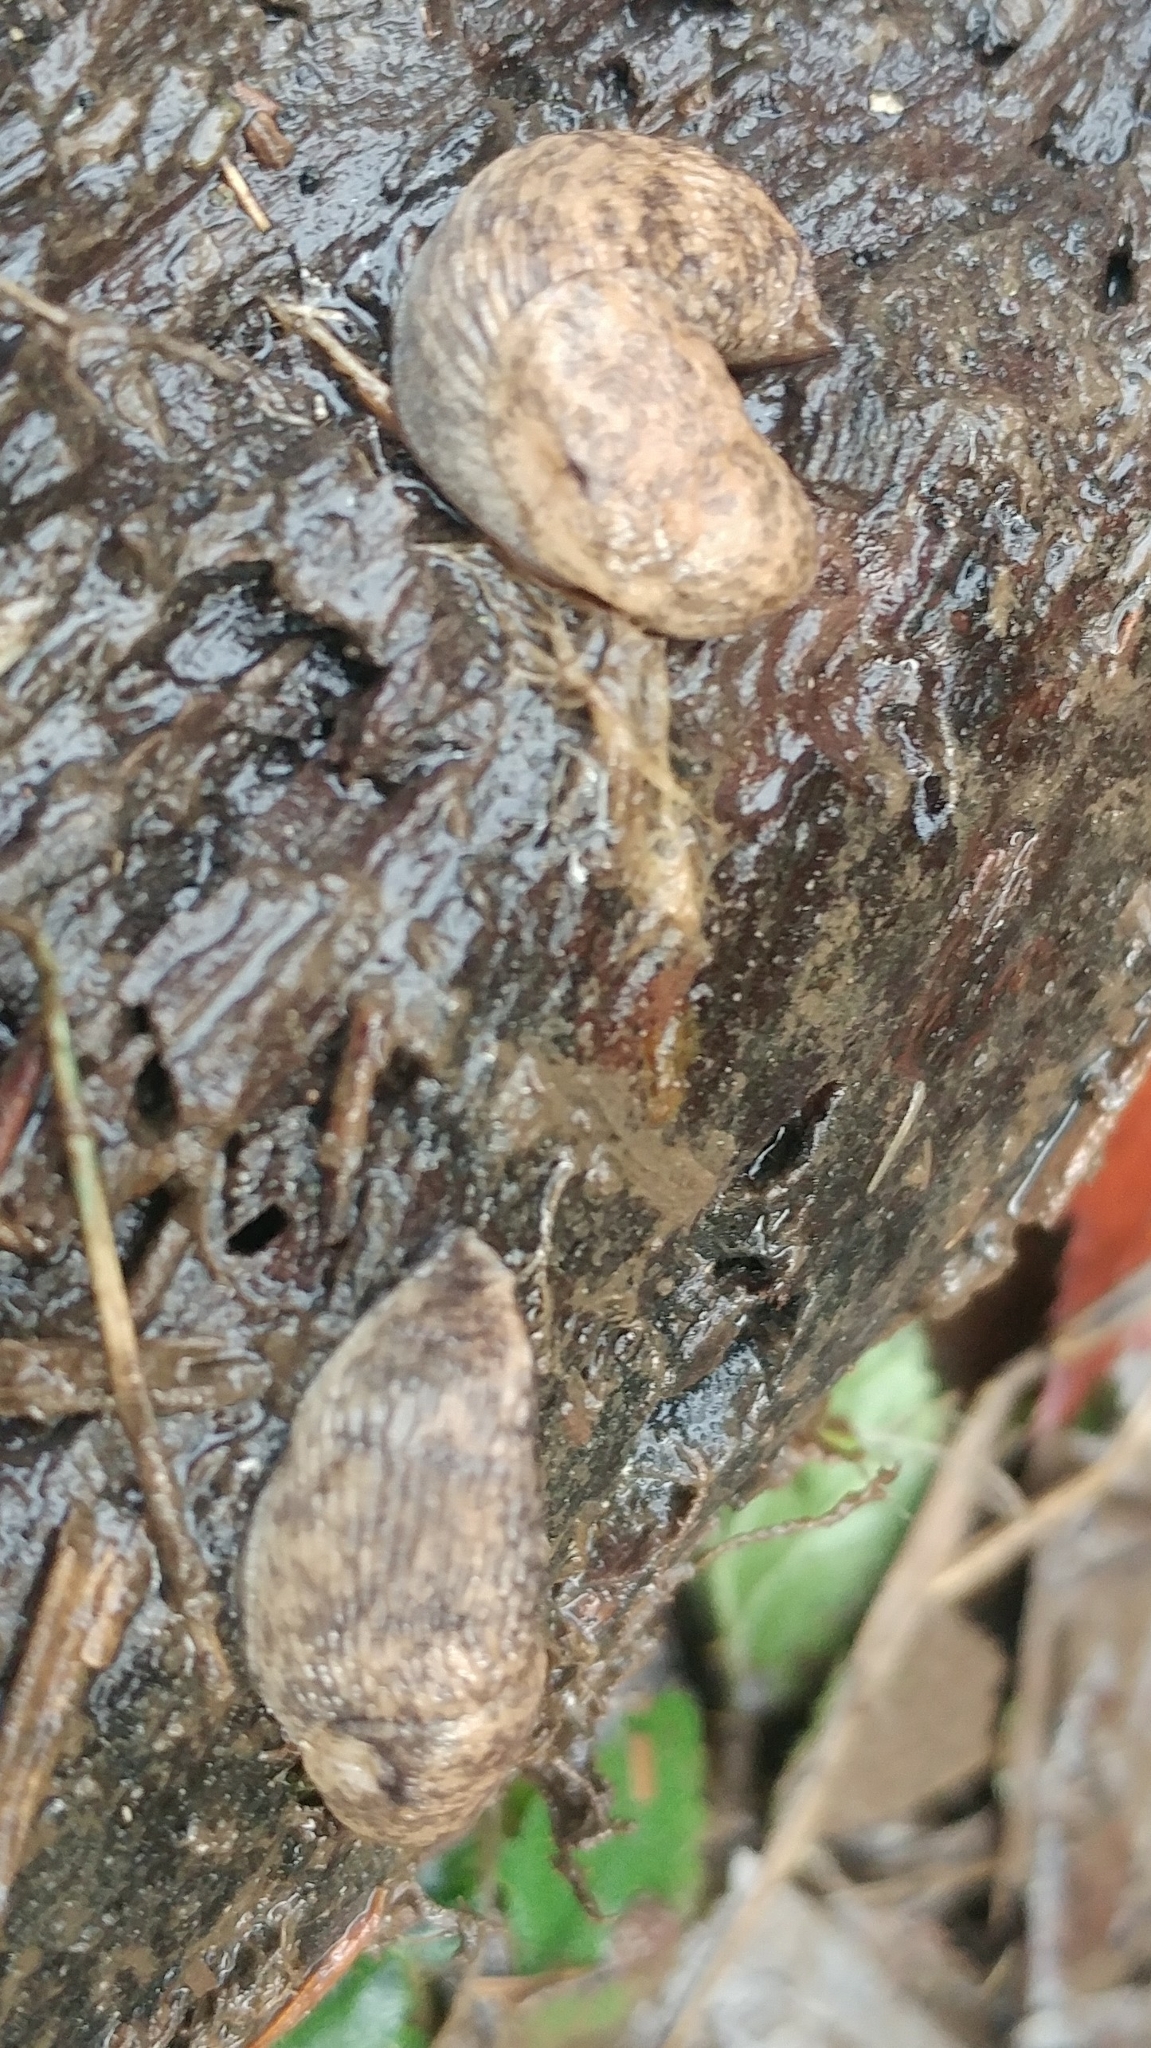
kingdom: Animalia
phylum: Mollusca
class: Gastropoda
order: Stylommatophora
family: Agriolimacidae
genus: Deroceras
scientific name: Deroceras reticulatum
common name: Gray field slug
